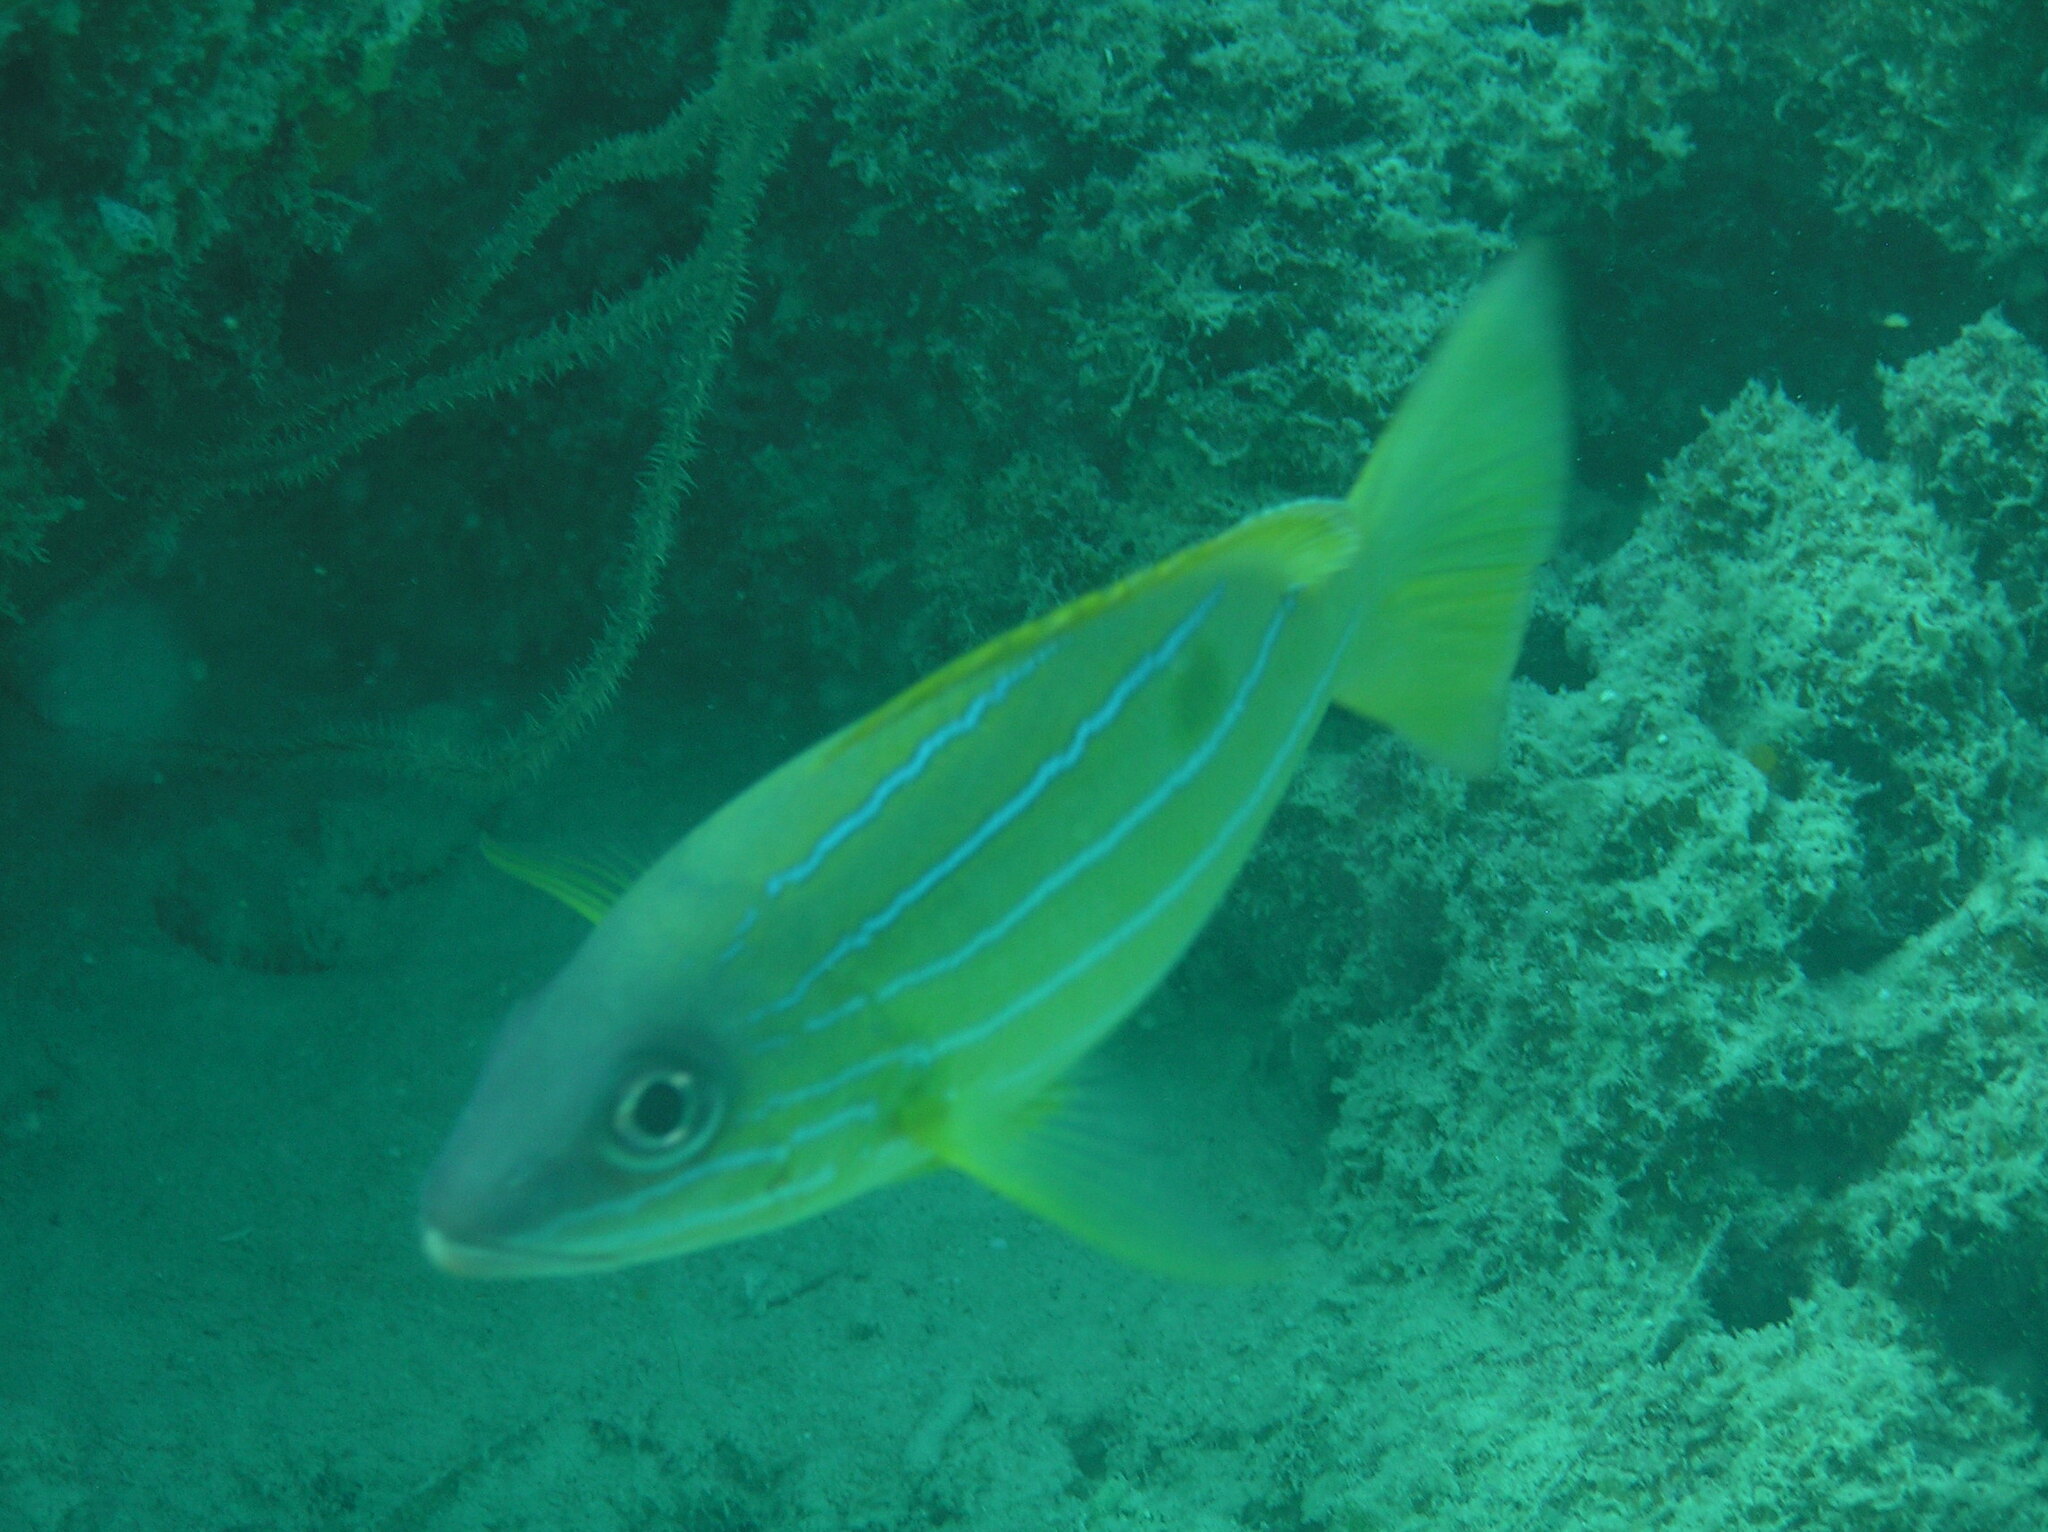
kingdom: Animalia
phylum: Chordata
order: Perciformes
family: Lutjanidae
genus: Lutjanus
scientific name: Lutjanus quinquelineatus
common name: Five-lined snapper
